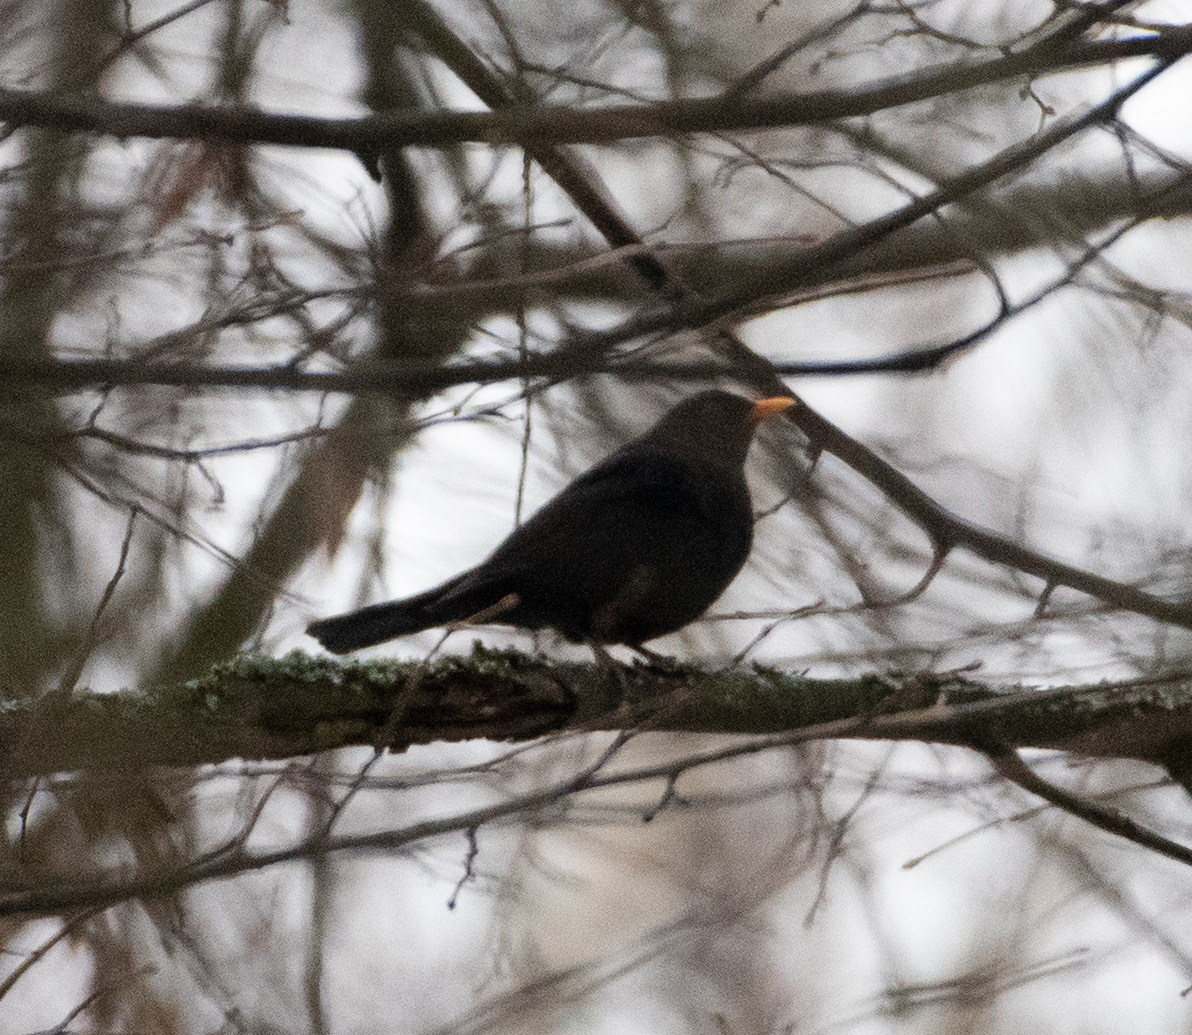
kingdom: Animalia
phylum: Chordata
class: Aves
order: Passeriformes
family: Turdidae
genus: Turdus
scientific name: Turdus merula
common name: Common blackbird
